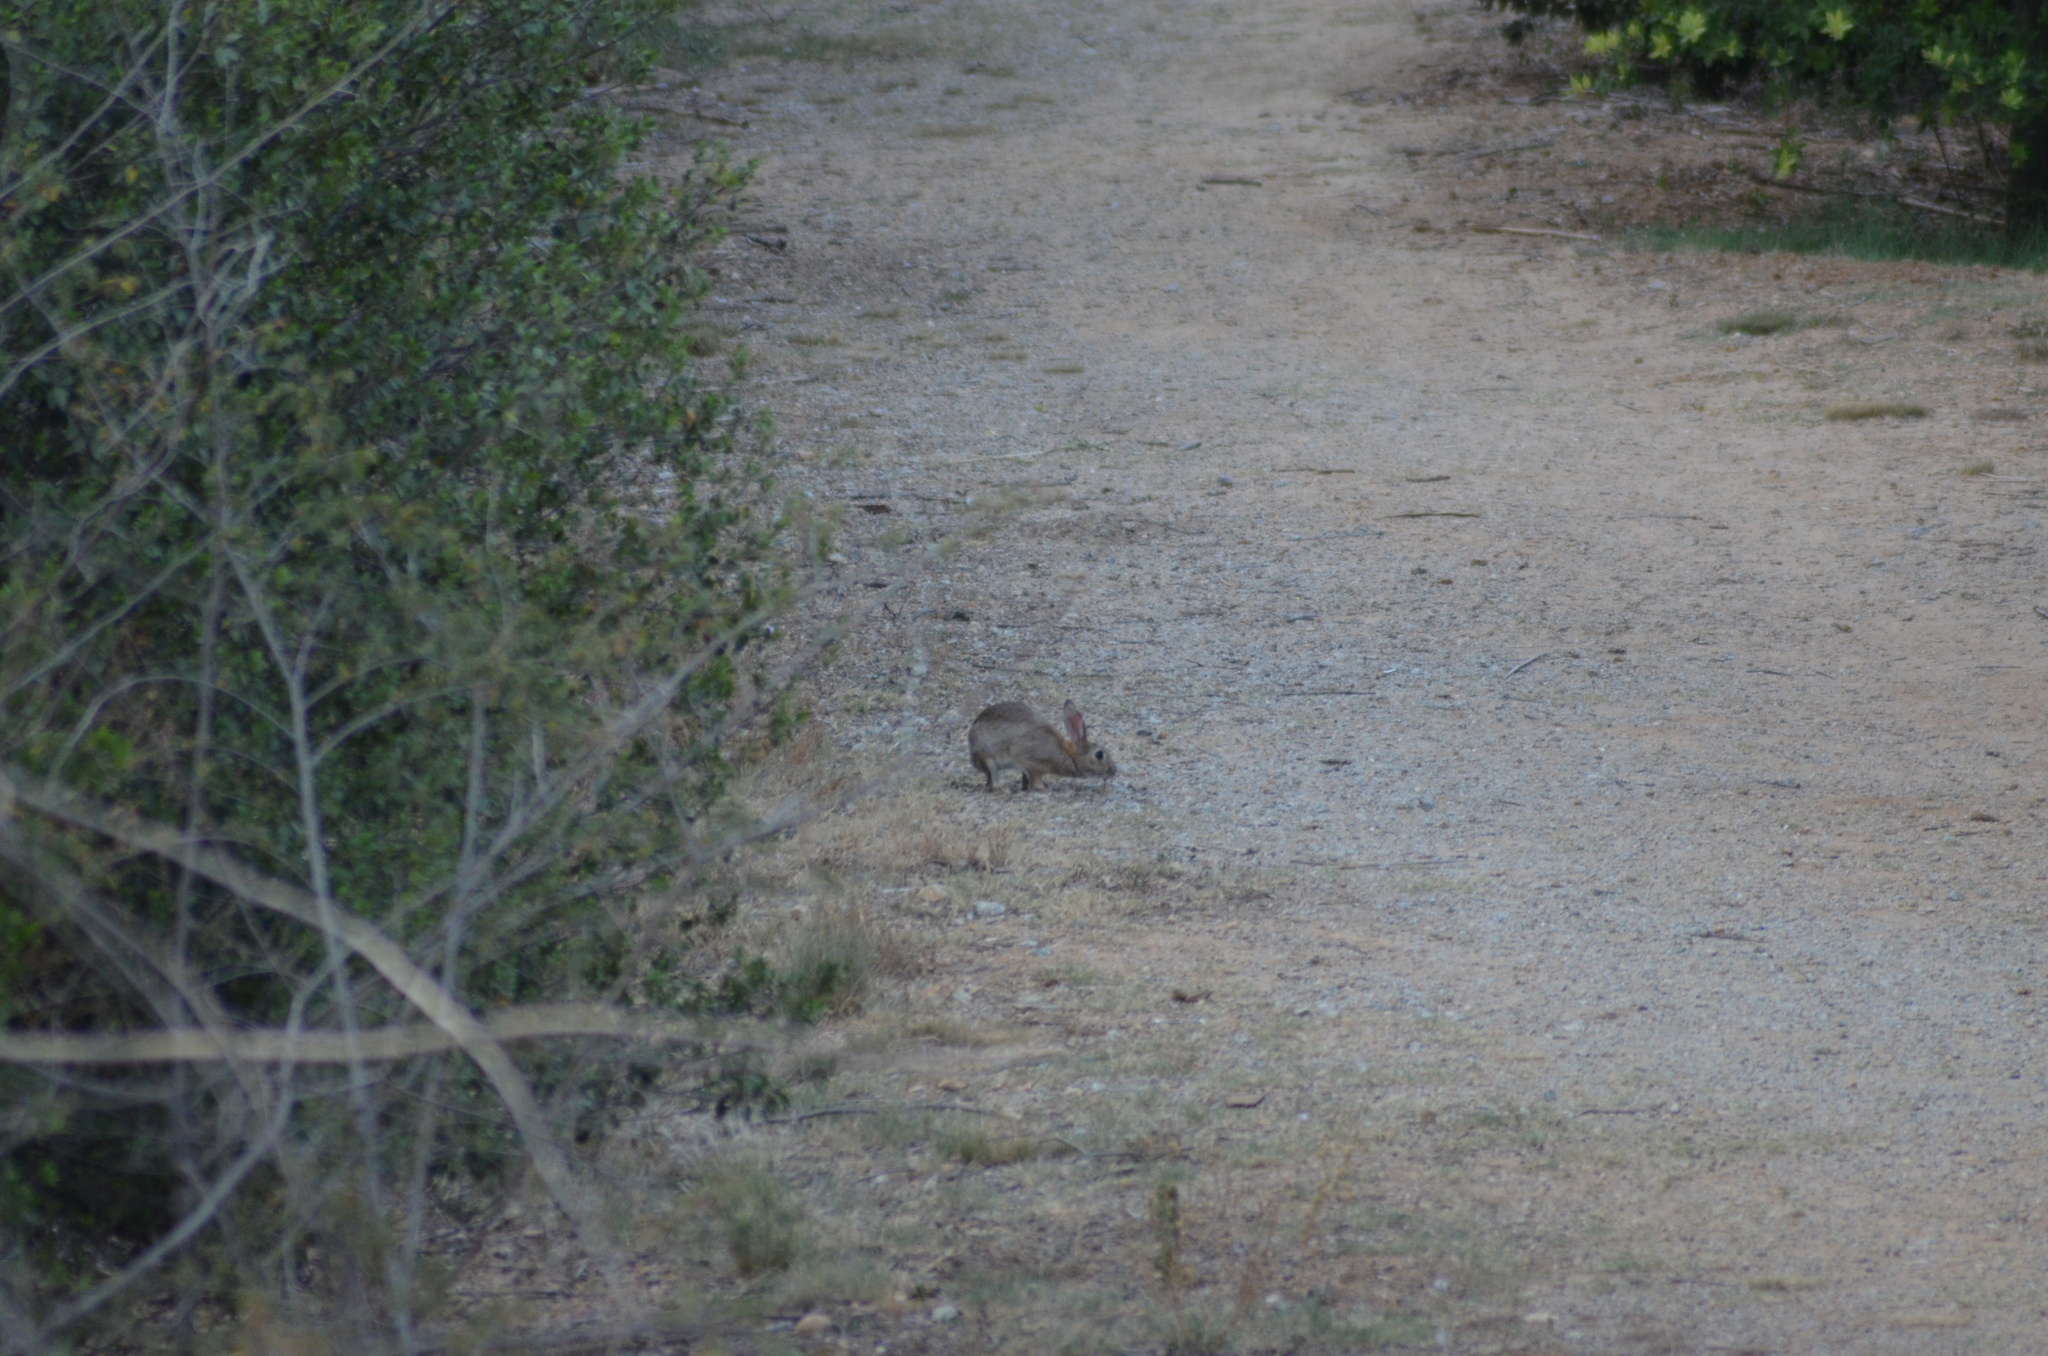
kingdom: Animalia
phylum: Chordata
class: Mammalia
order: Lagomorpha
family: Leporidae
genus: Oryctolagus
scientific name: Oryctolagus cuniculus
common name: European rabbit
